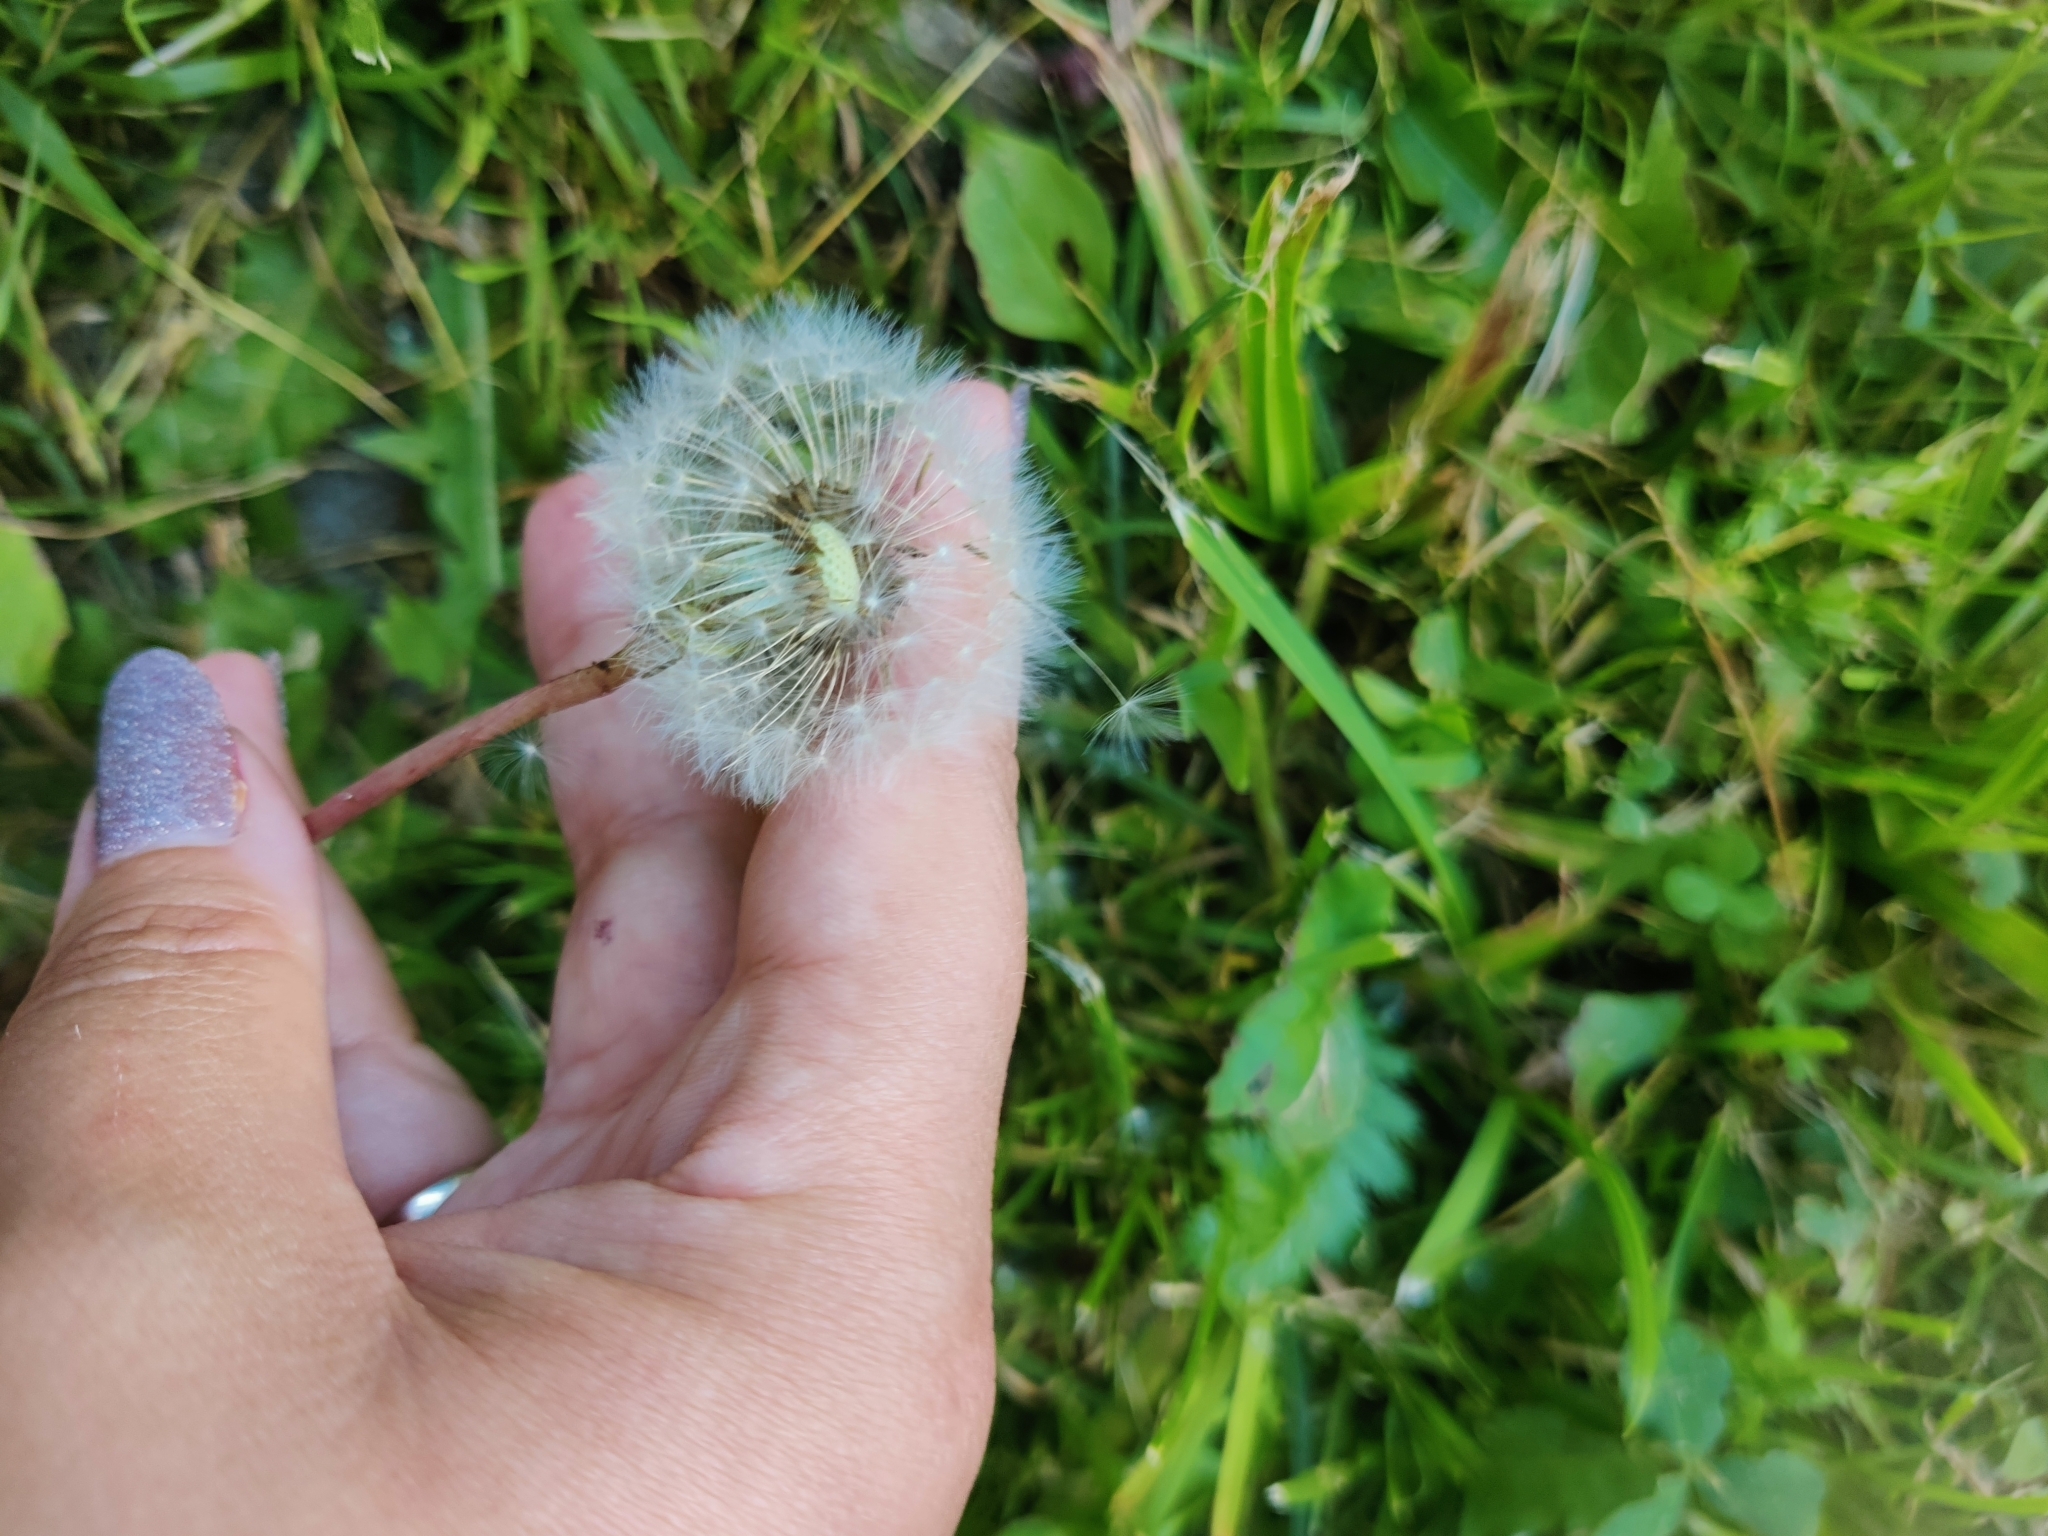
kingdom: Plantae
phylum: Tracheophyta
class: Magnoliopsida
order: Asterales
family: Asteraceae
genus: Taraxacum
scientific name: Taraxacum officinale
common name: Common dandelion
